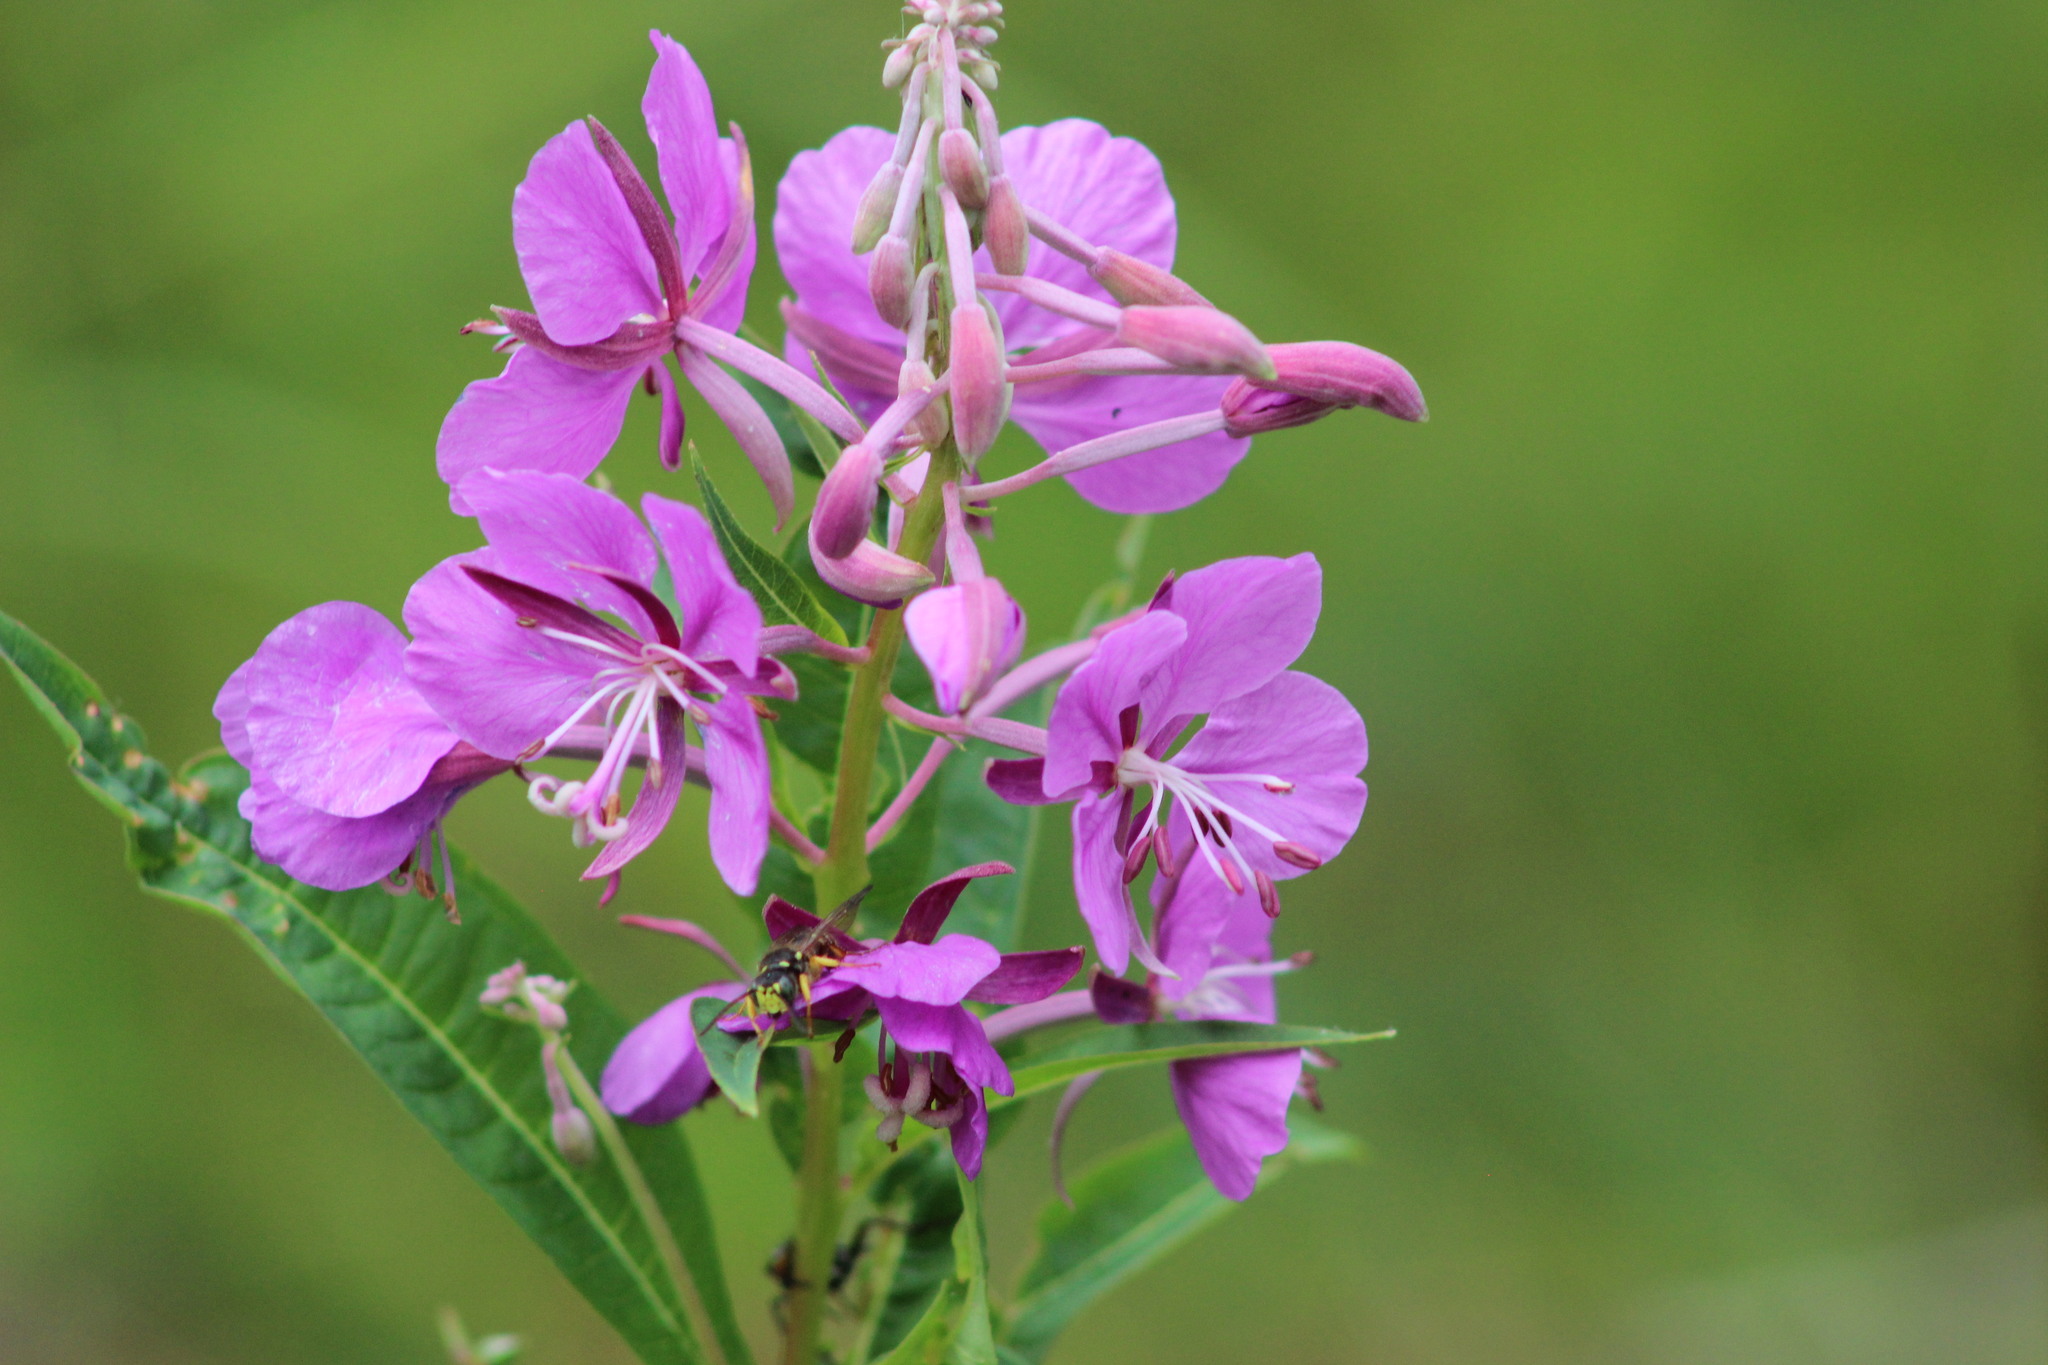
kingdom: Plantae
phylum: Tracheophyta
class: Magnoliopsida
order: Myrtales
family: Onagraceae
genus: Chamaenerion
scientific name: Chamaenerion angustifolium
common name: Fireweed
